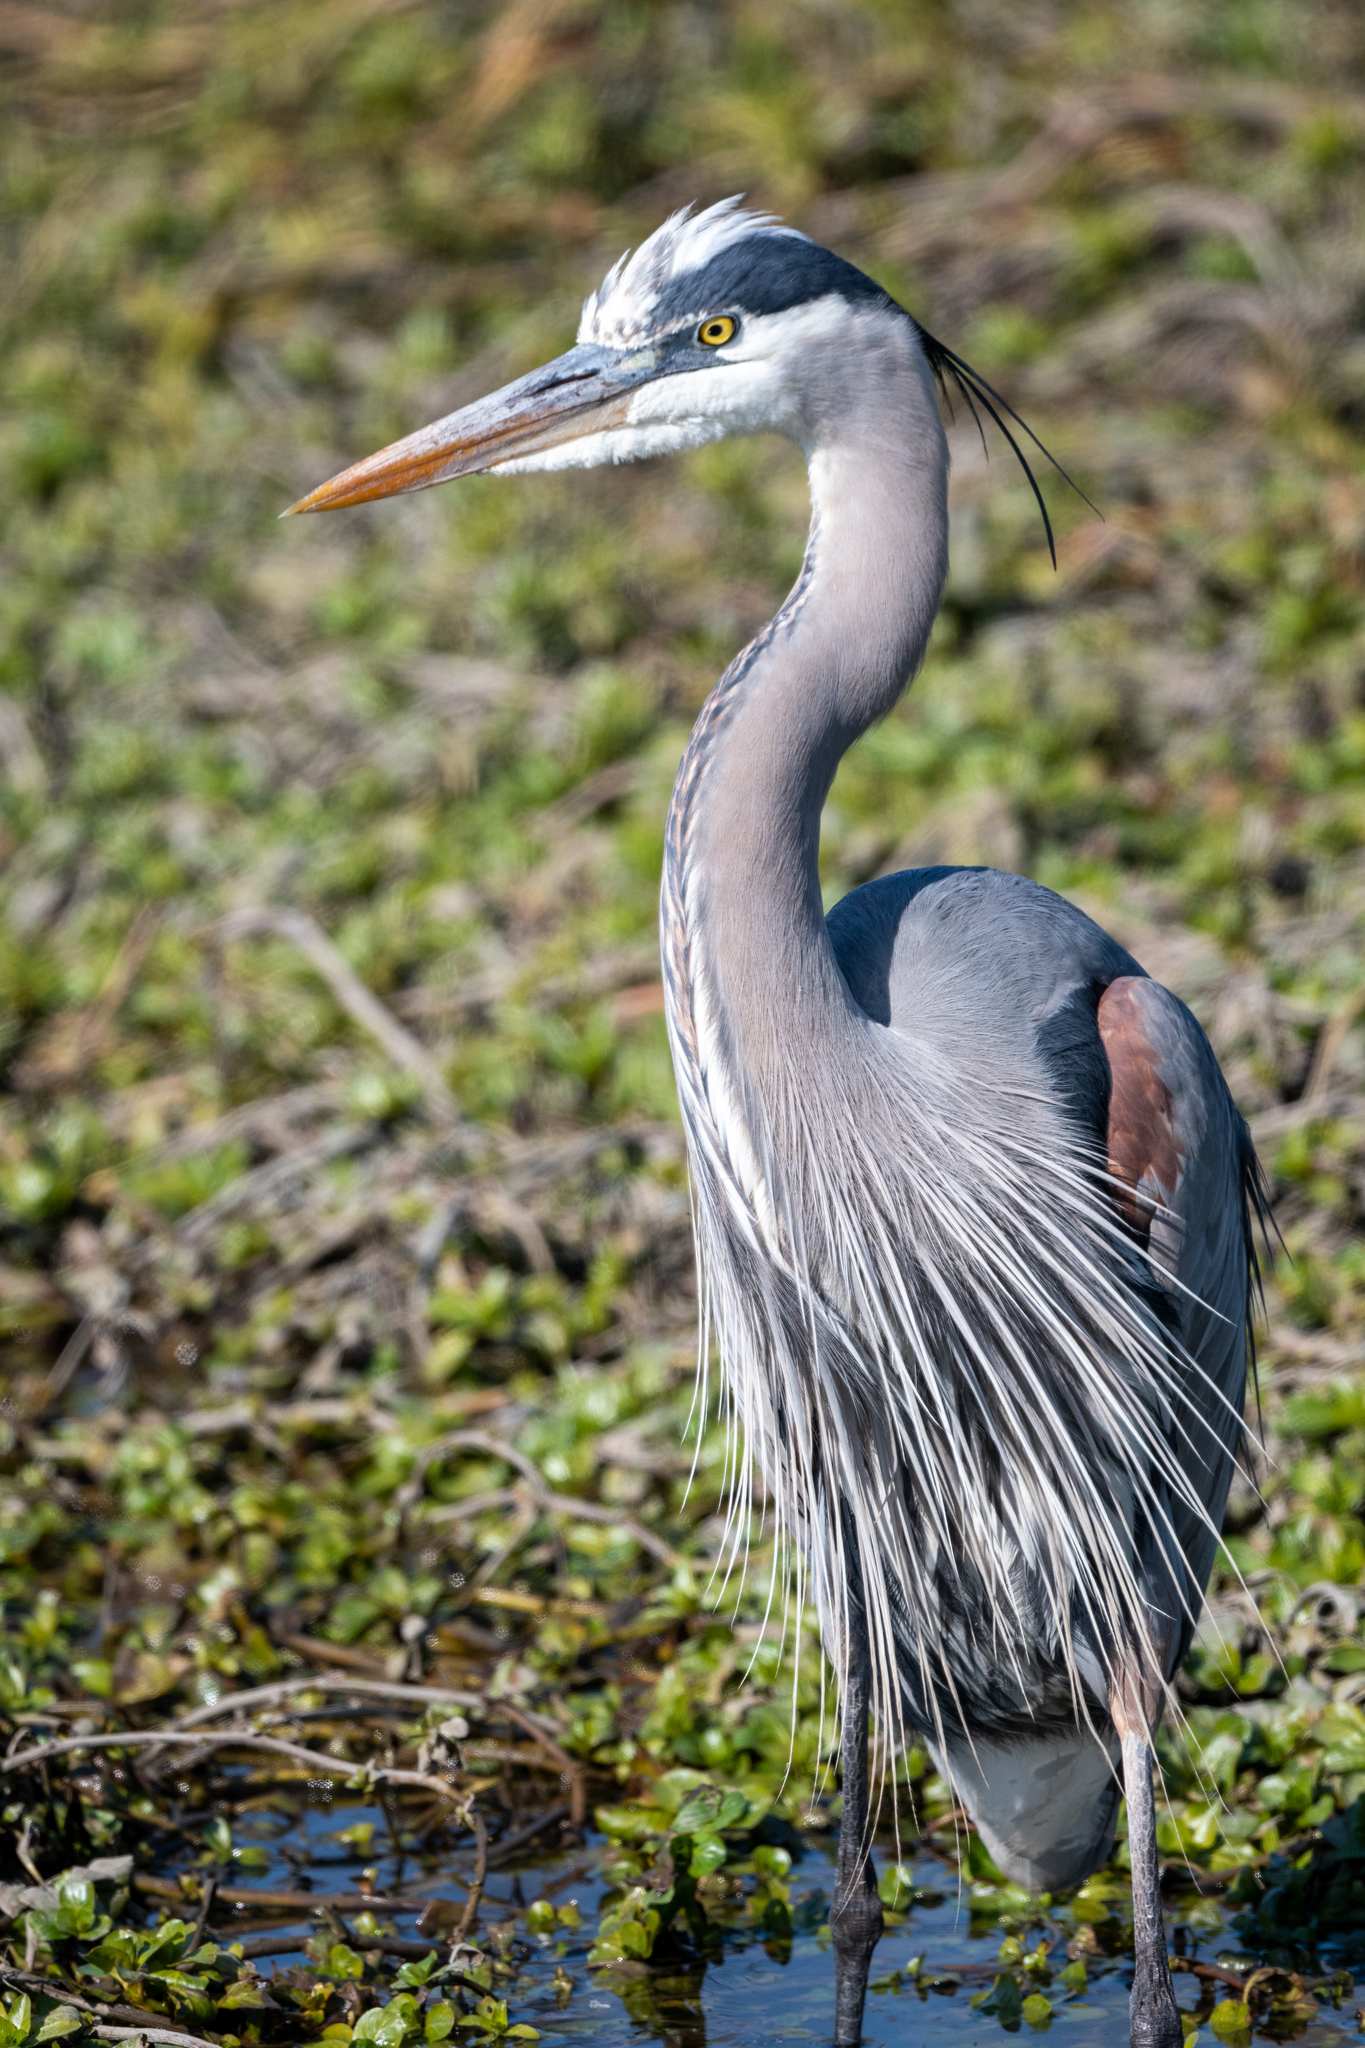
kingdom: Animalia
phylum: Chordata
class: Aves
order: Pelecaniformes
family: Ardeidae
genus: Ardea
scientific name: Ardea herodias
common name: Great blue heron
